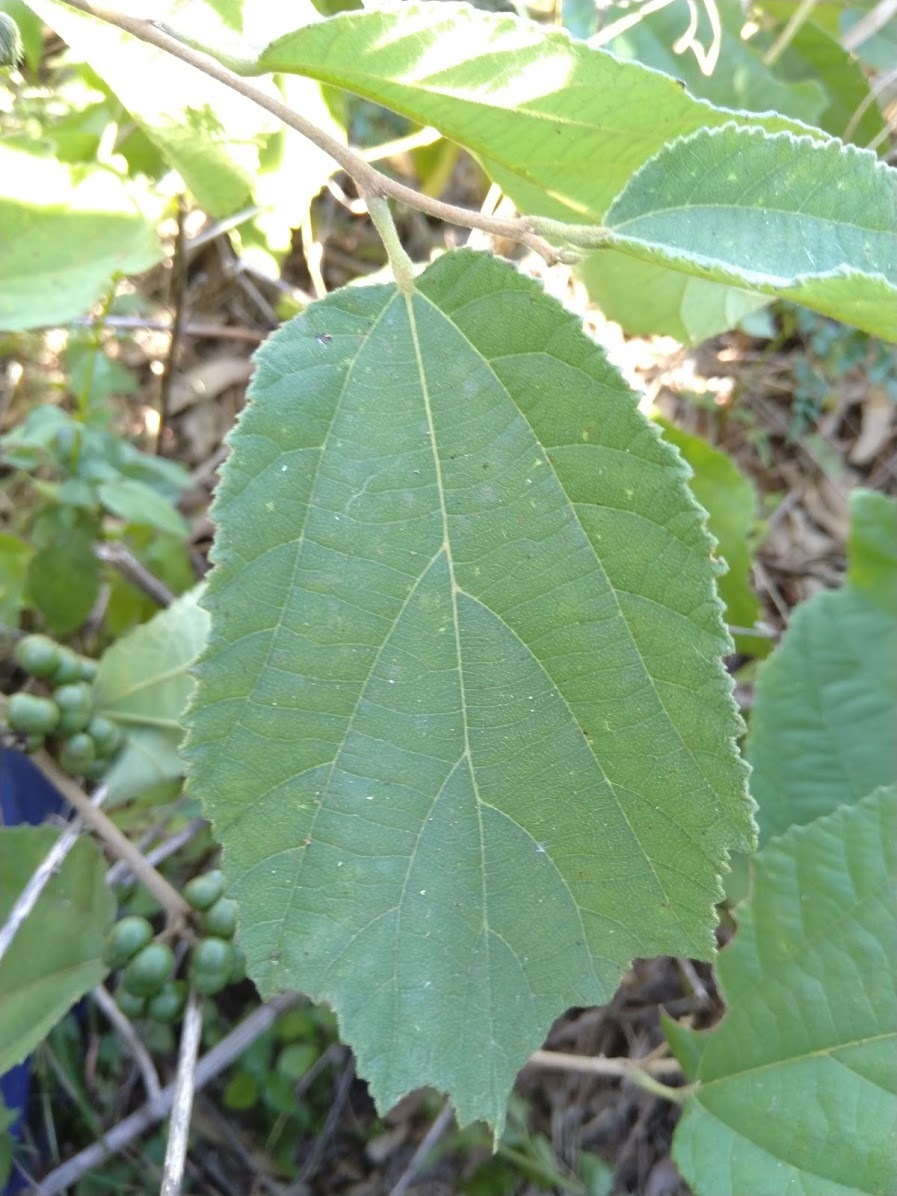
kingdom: Plantae
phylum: Tracheophyta
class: Magnoliopsida
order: Malvales
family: Malvaceae
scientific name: Malvaceae
